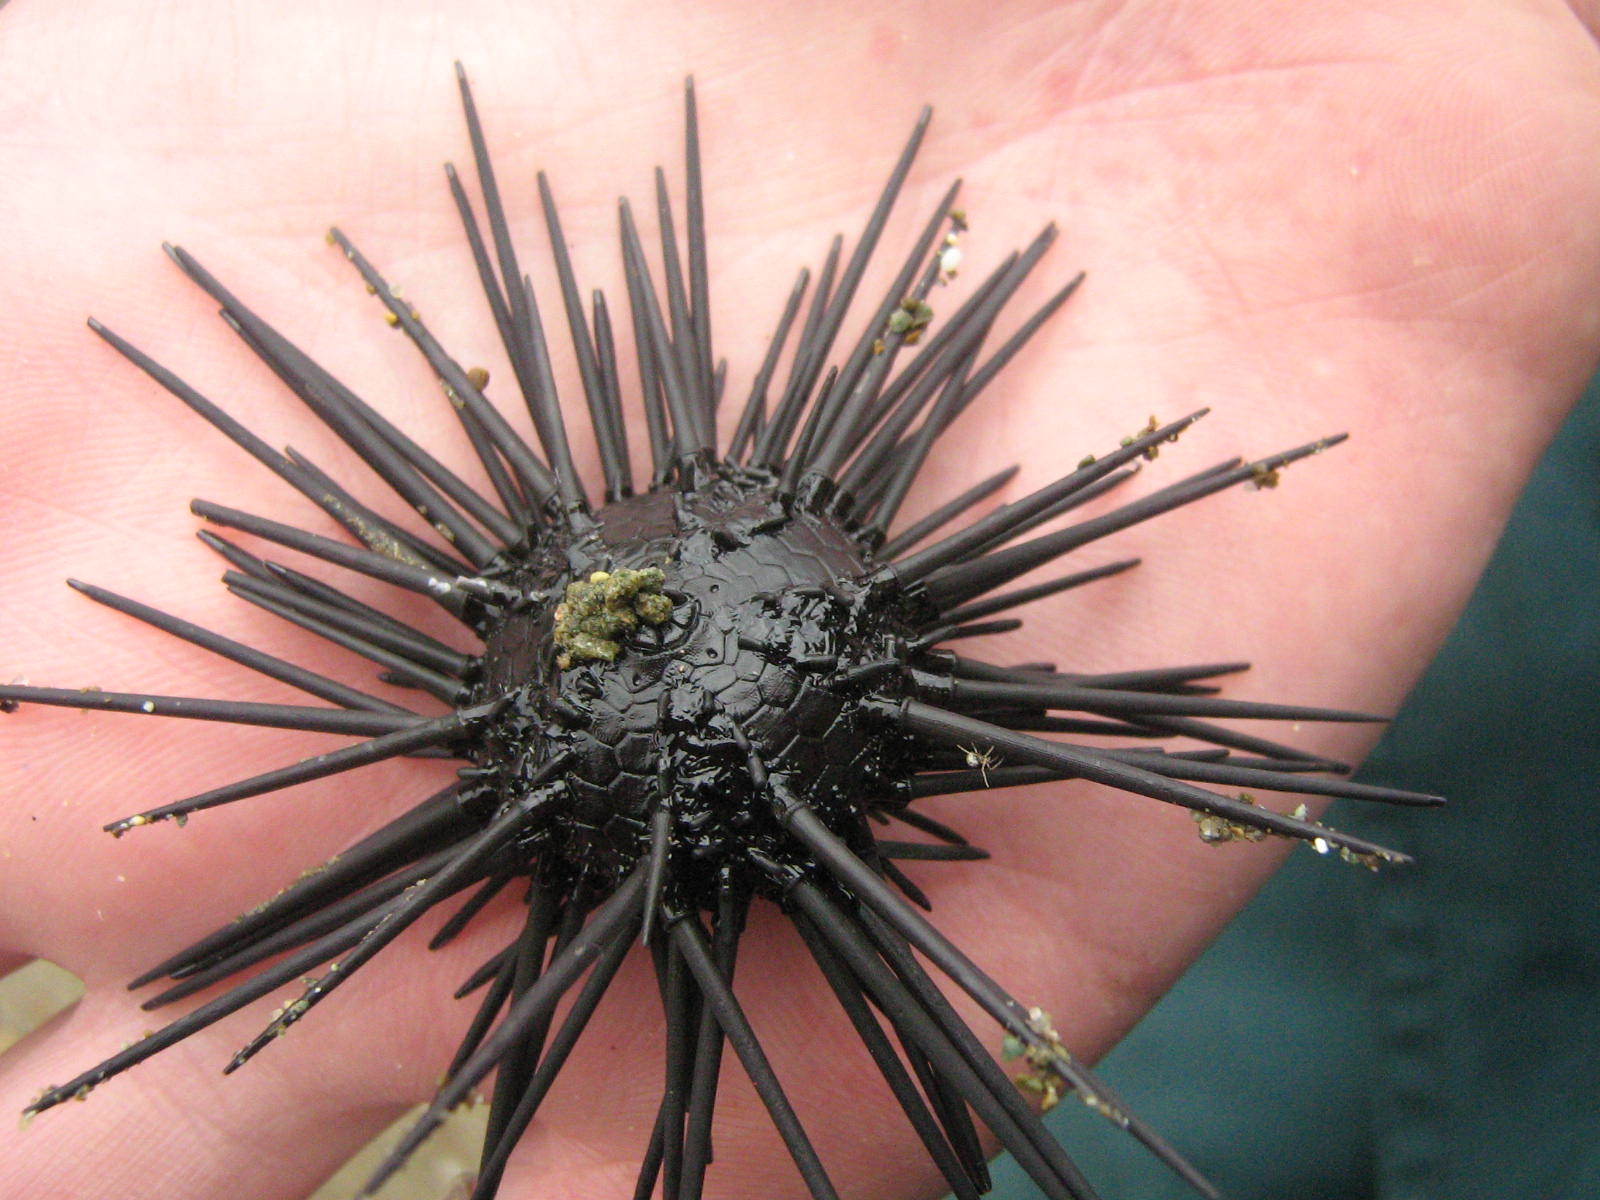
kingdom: Animalia
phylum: Echinodermata
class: Echinoidea
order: Arbacioida
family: Arbaciidae
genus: Arbacia
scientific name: Arbacia stellata
